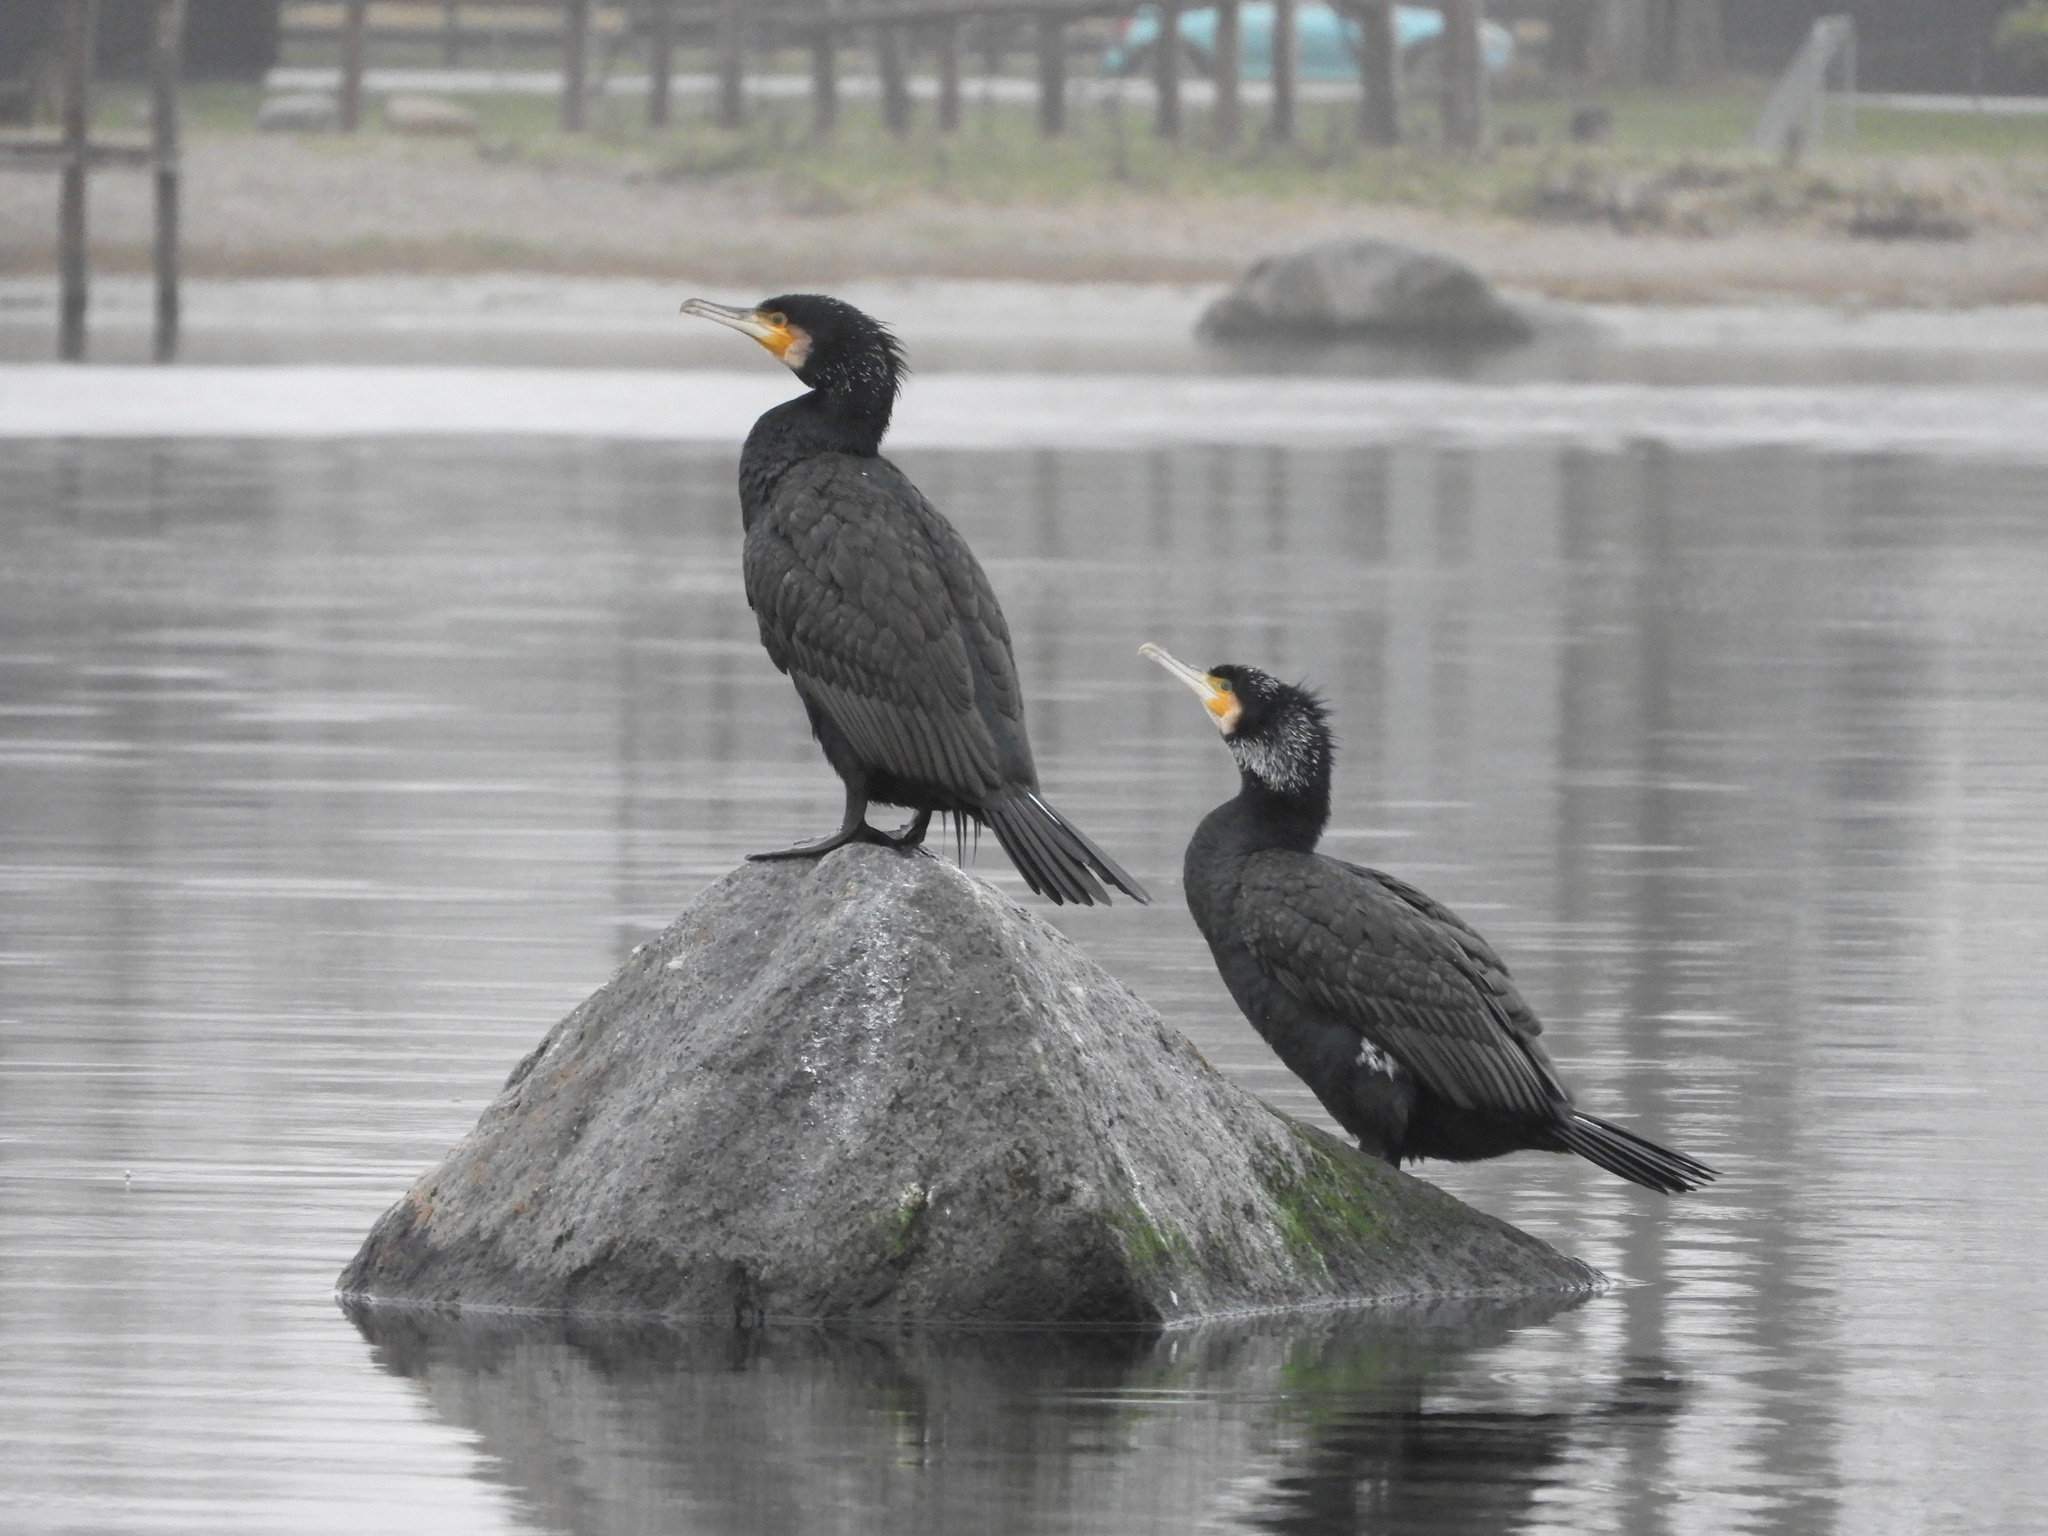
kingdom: Animalia
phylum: Chordata
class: Aves
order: Suliformes
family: Phalacrocoracidae
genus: Phalacrocorax
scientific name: Phalacrocorax carbo
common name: Great cormorant
